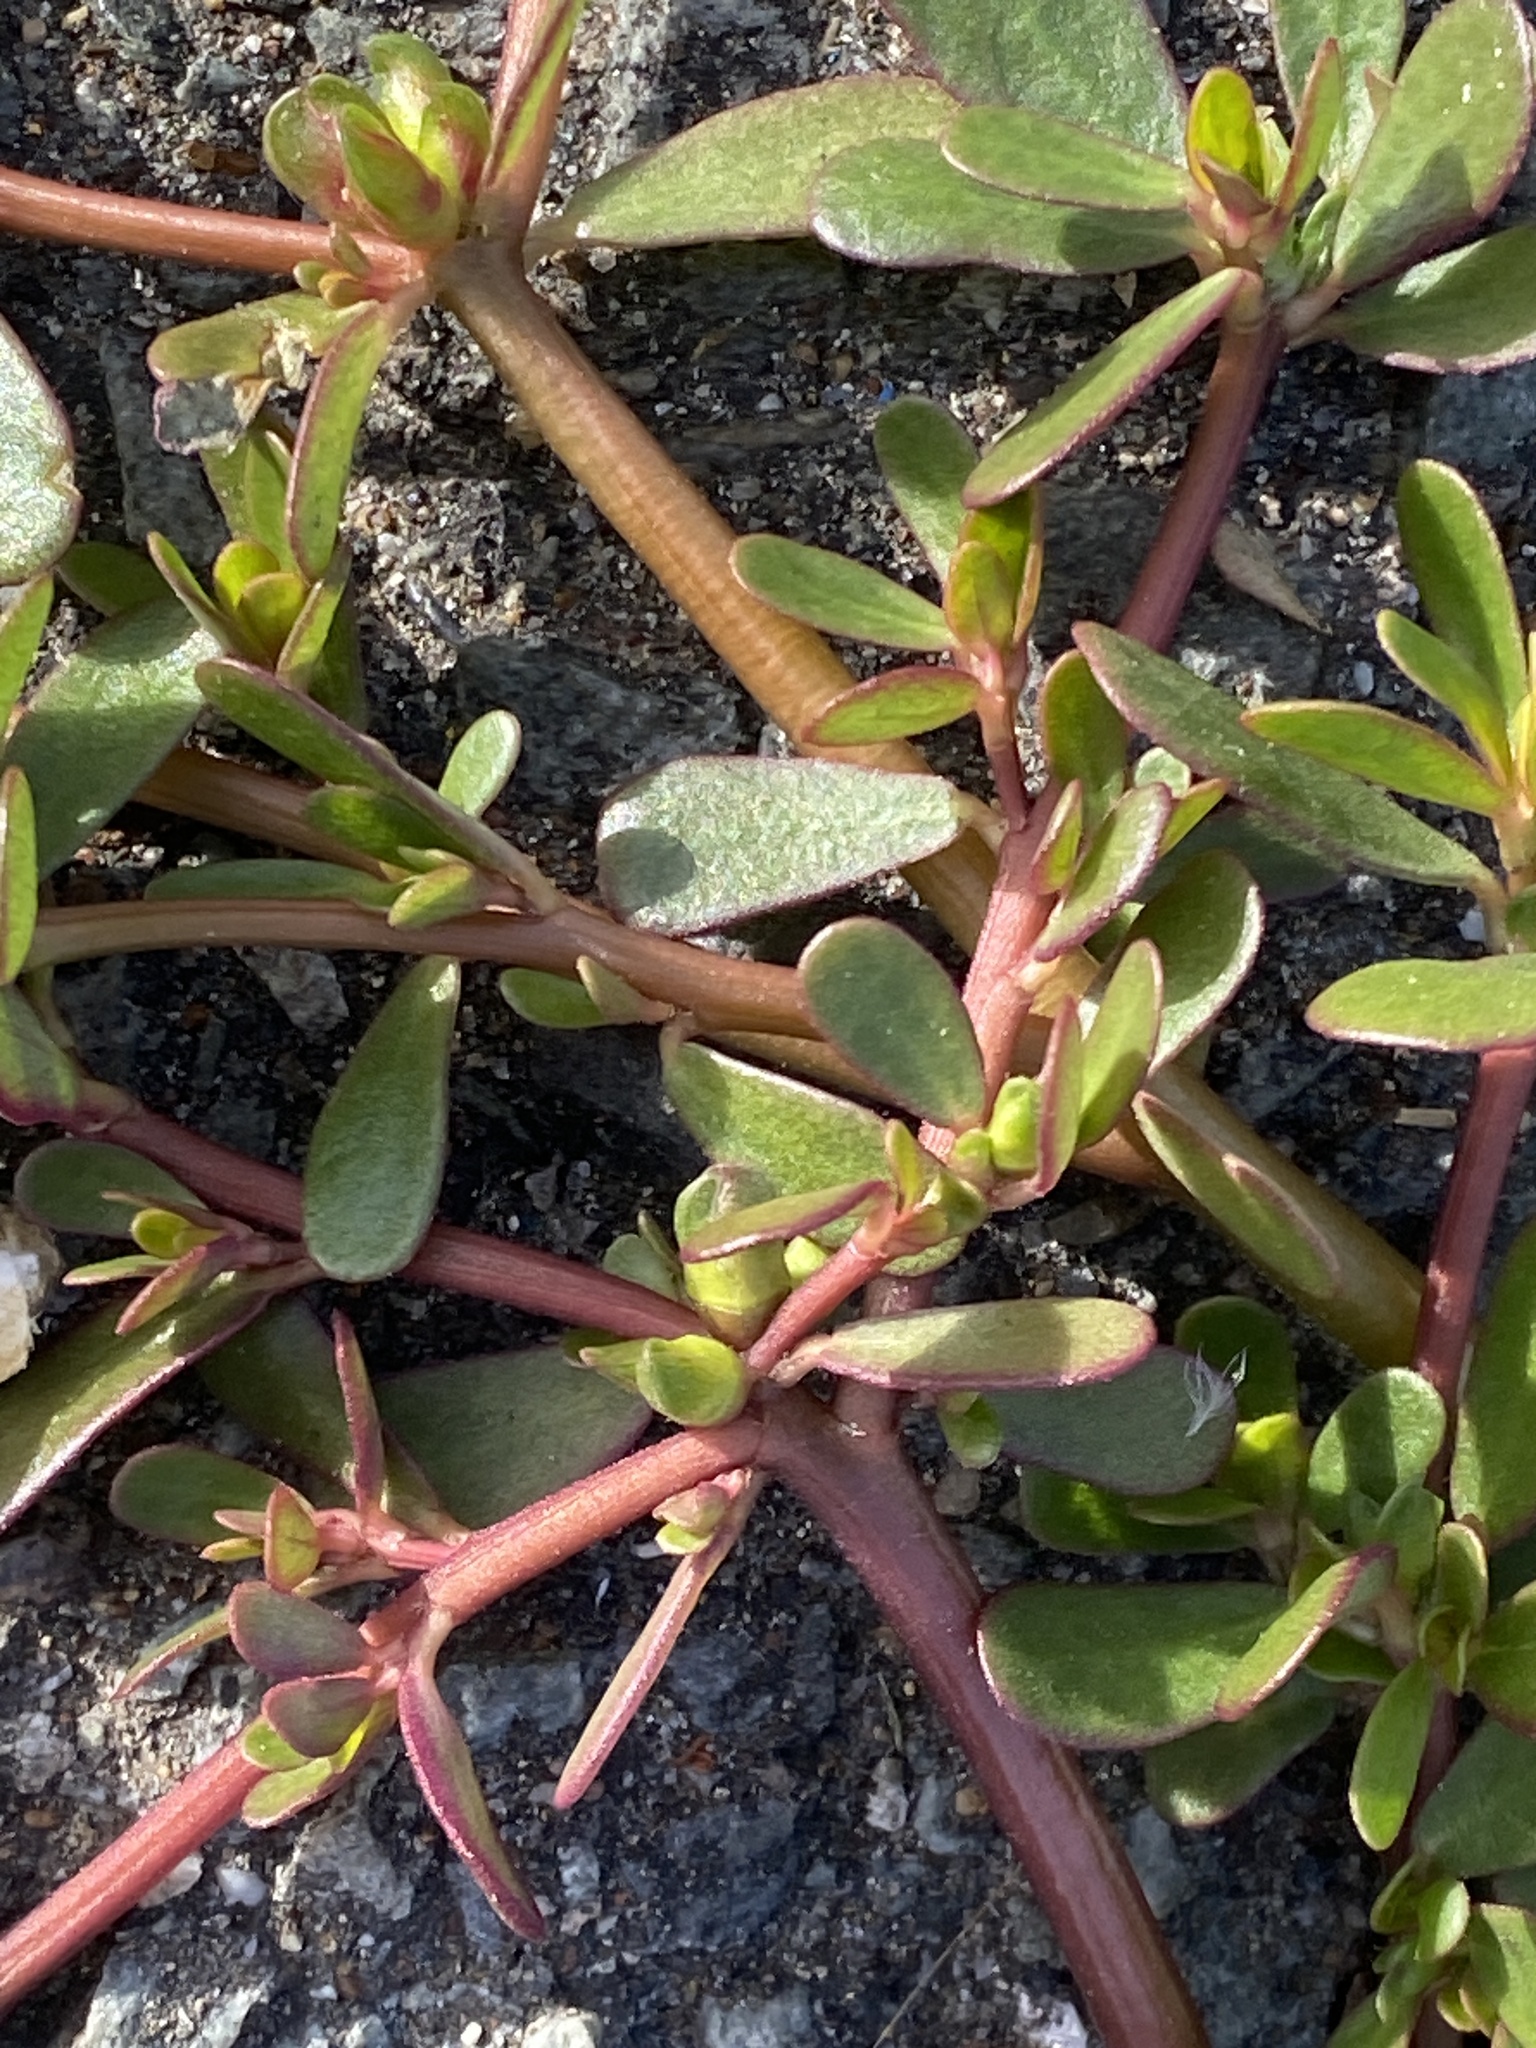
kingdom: Plantae
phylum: Tracheophyta
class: Magnoliopsida
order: Caryophyllales
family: Portulacaceae
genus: Portulaca
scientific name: Portulaca oleracea
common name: Common purslane
